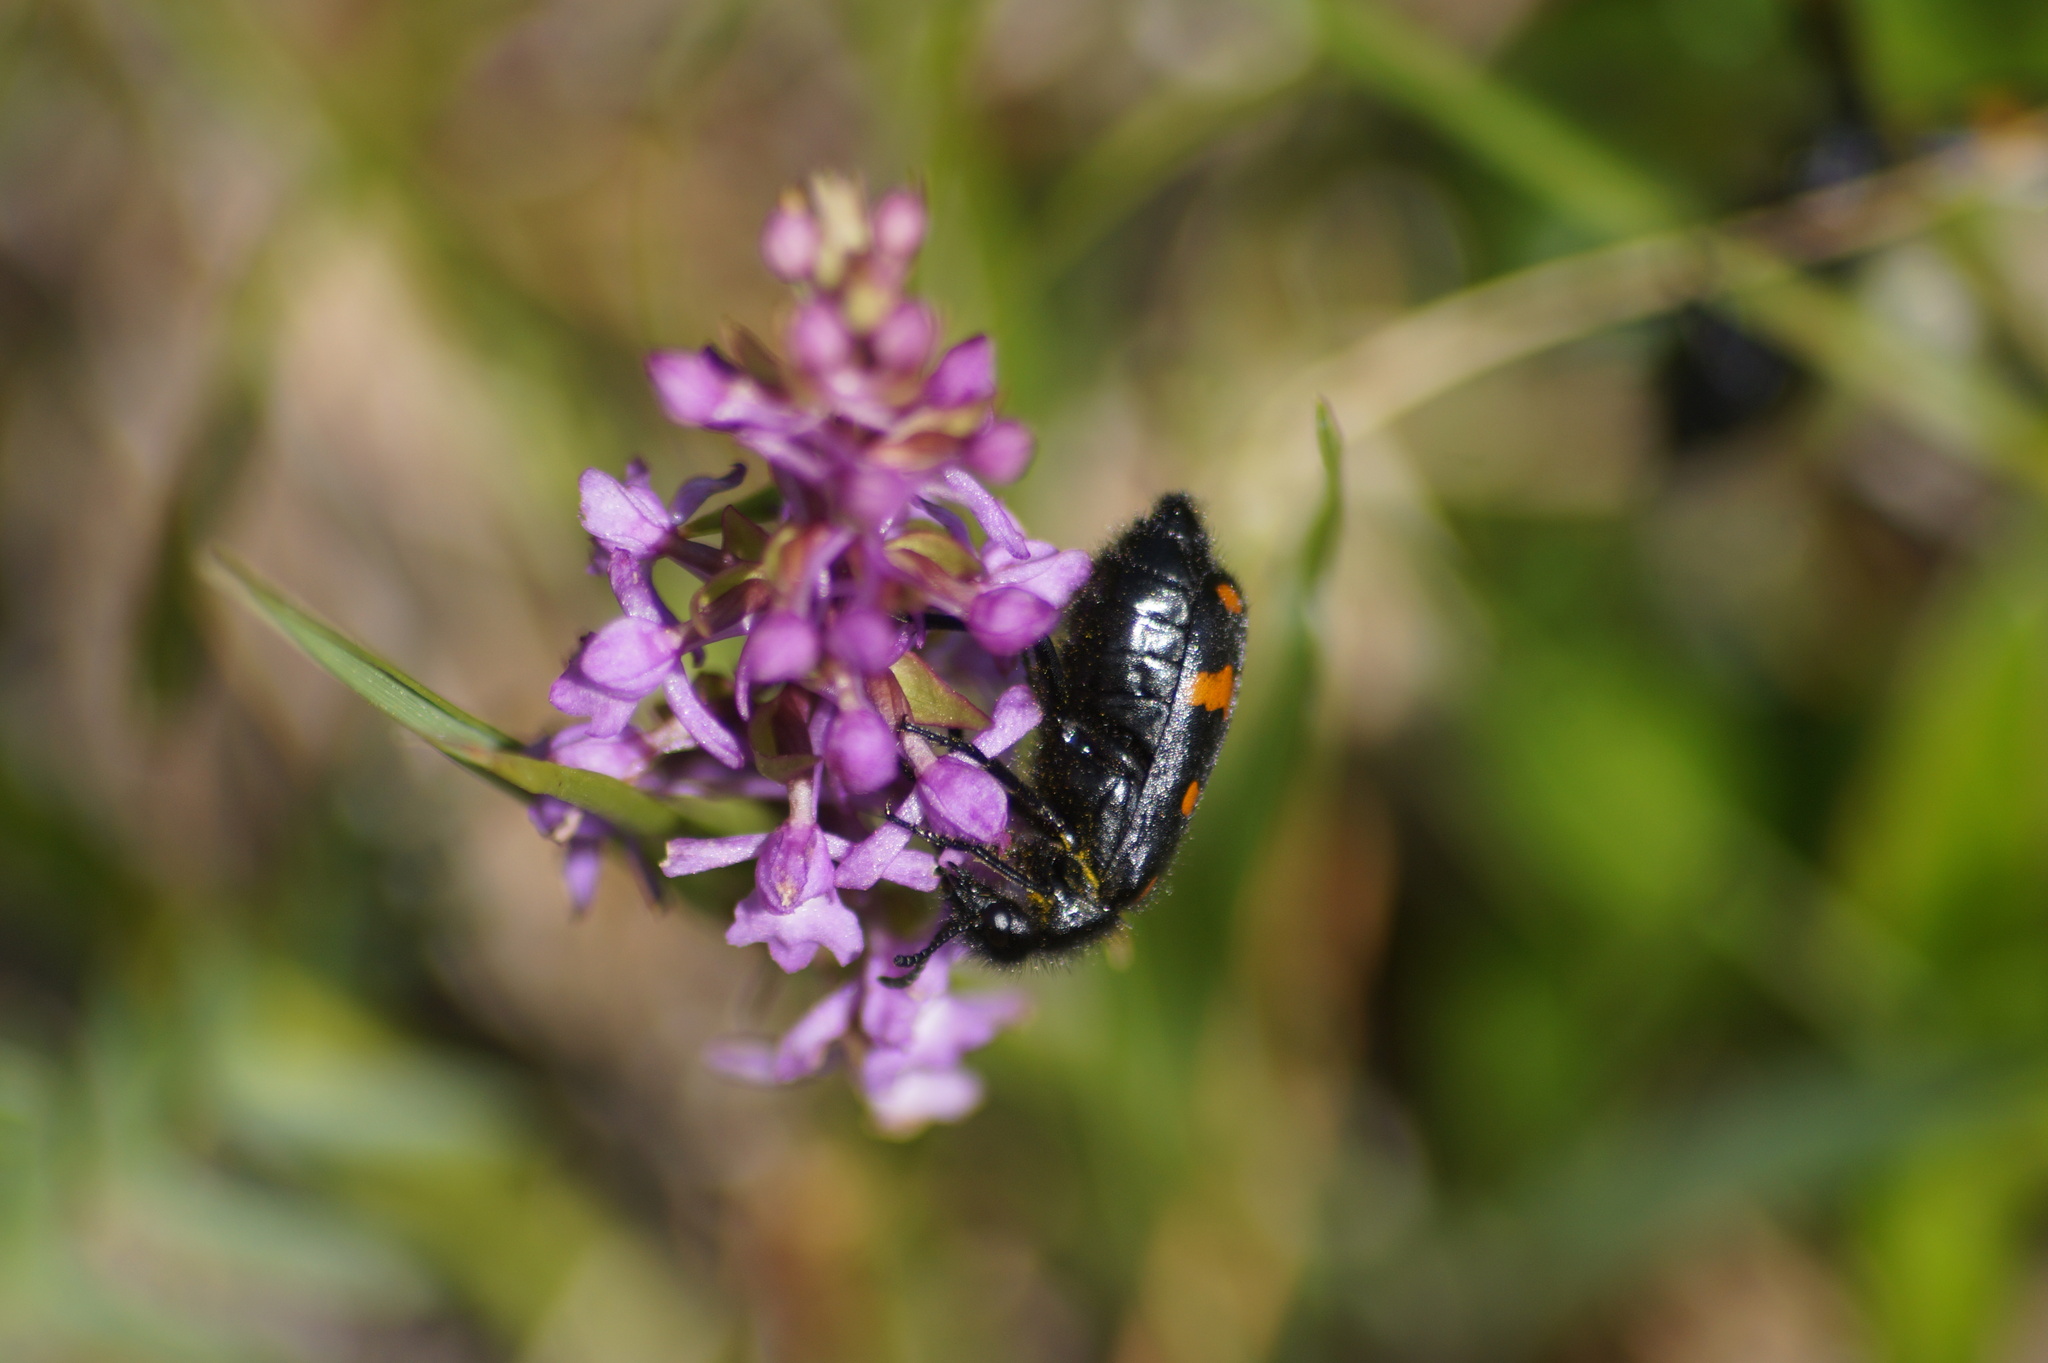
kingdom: Animalia
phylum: Arthropoda
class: Insecta
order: Coleoptera
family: Meloidae
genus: Hycleus
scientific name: Hycleus polymorphus
